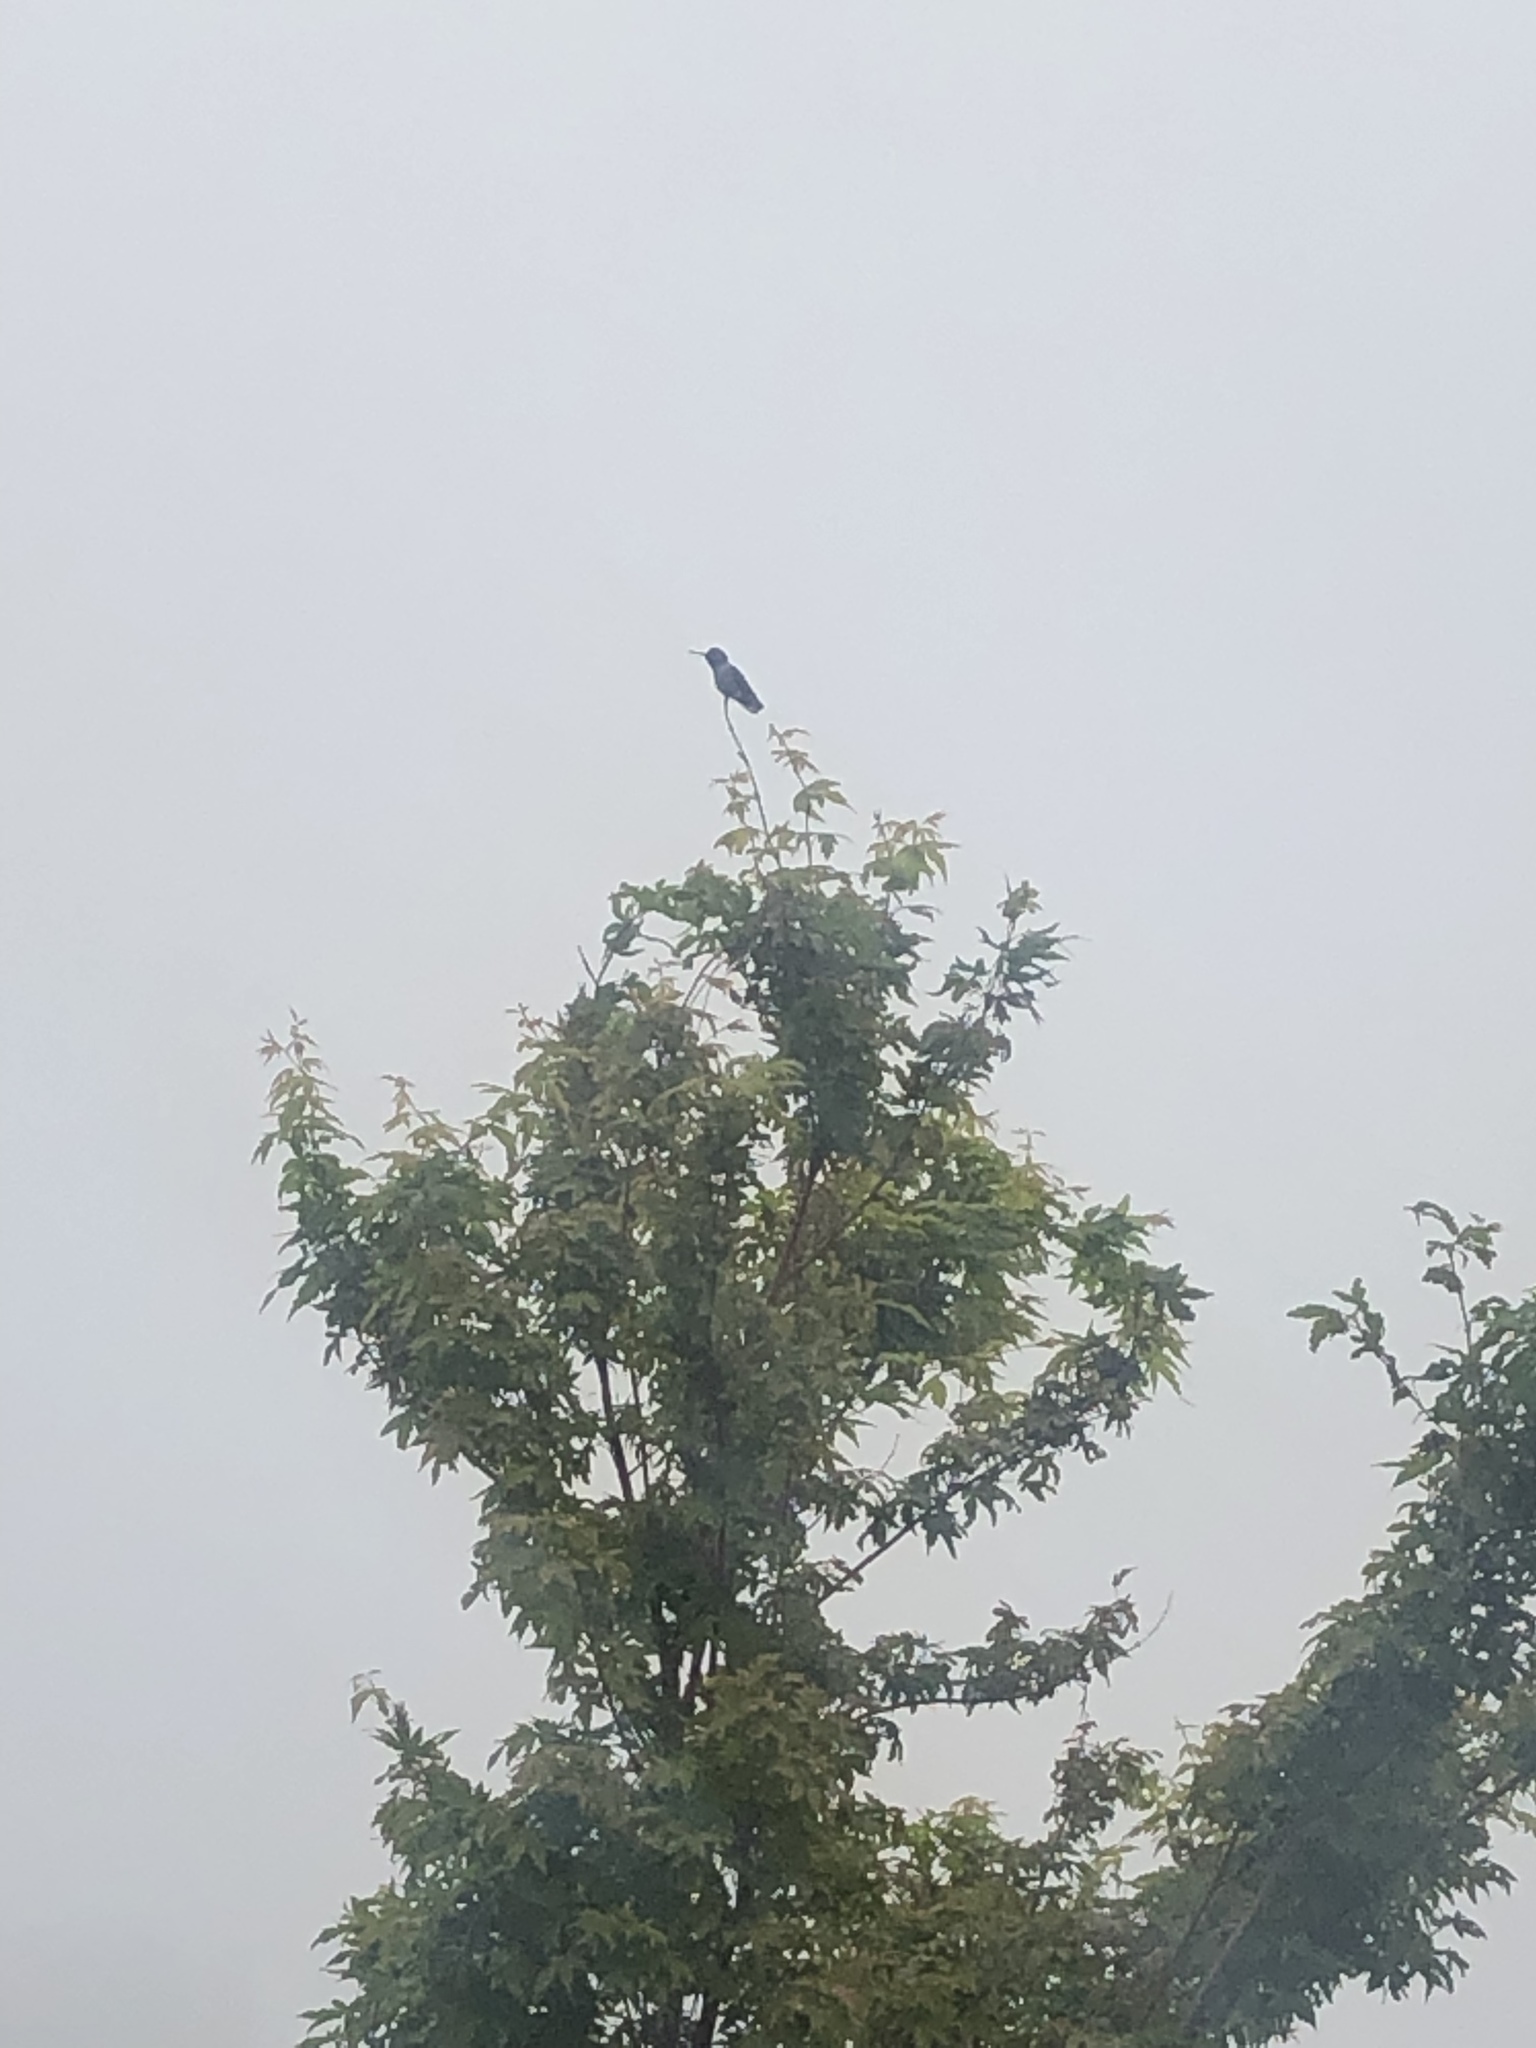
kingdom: Animalia
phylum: Chordata
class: Aves
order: Apodiformes
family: Trochilidae
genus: Calypte
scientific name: Calypte anna
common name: Anna's hummingbird
